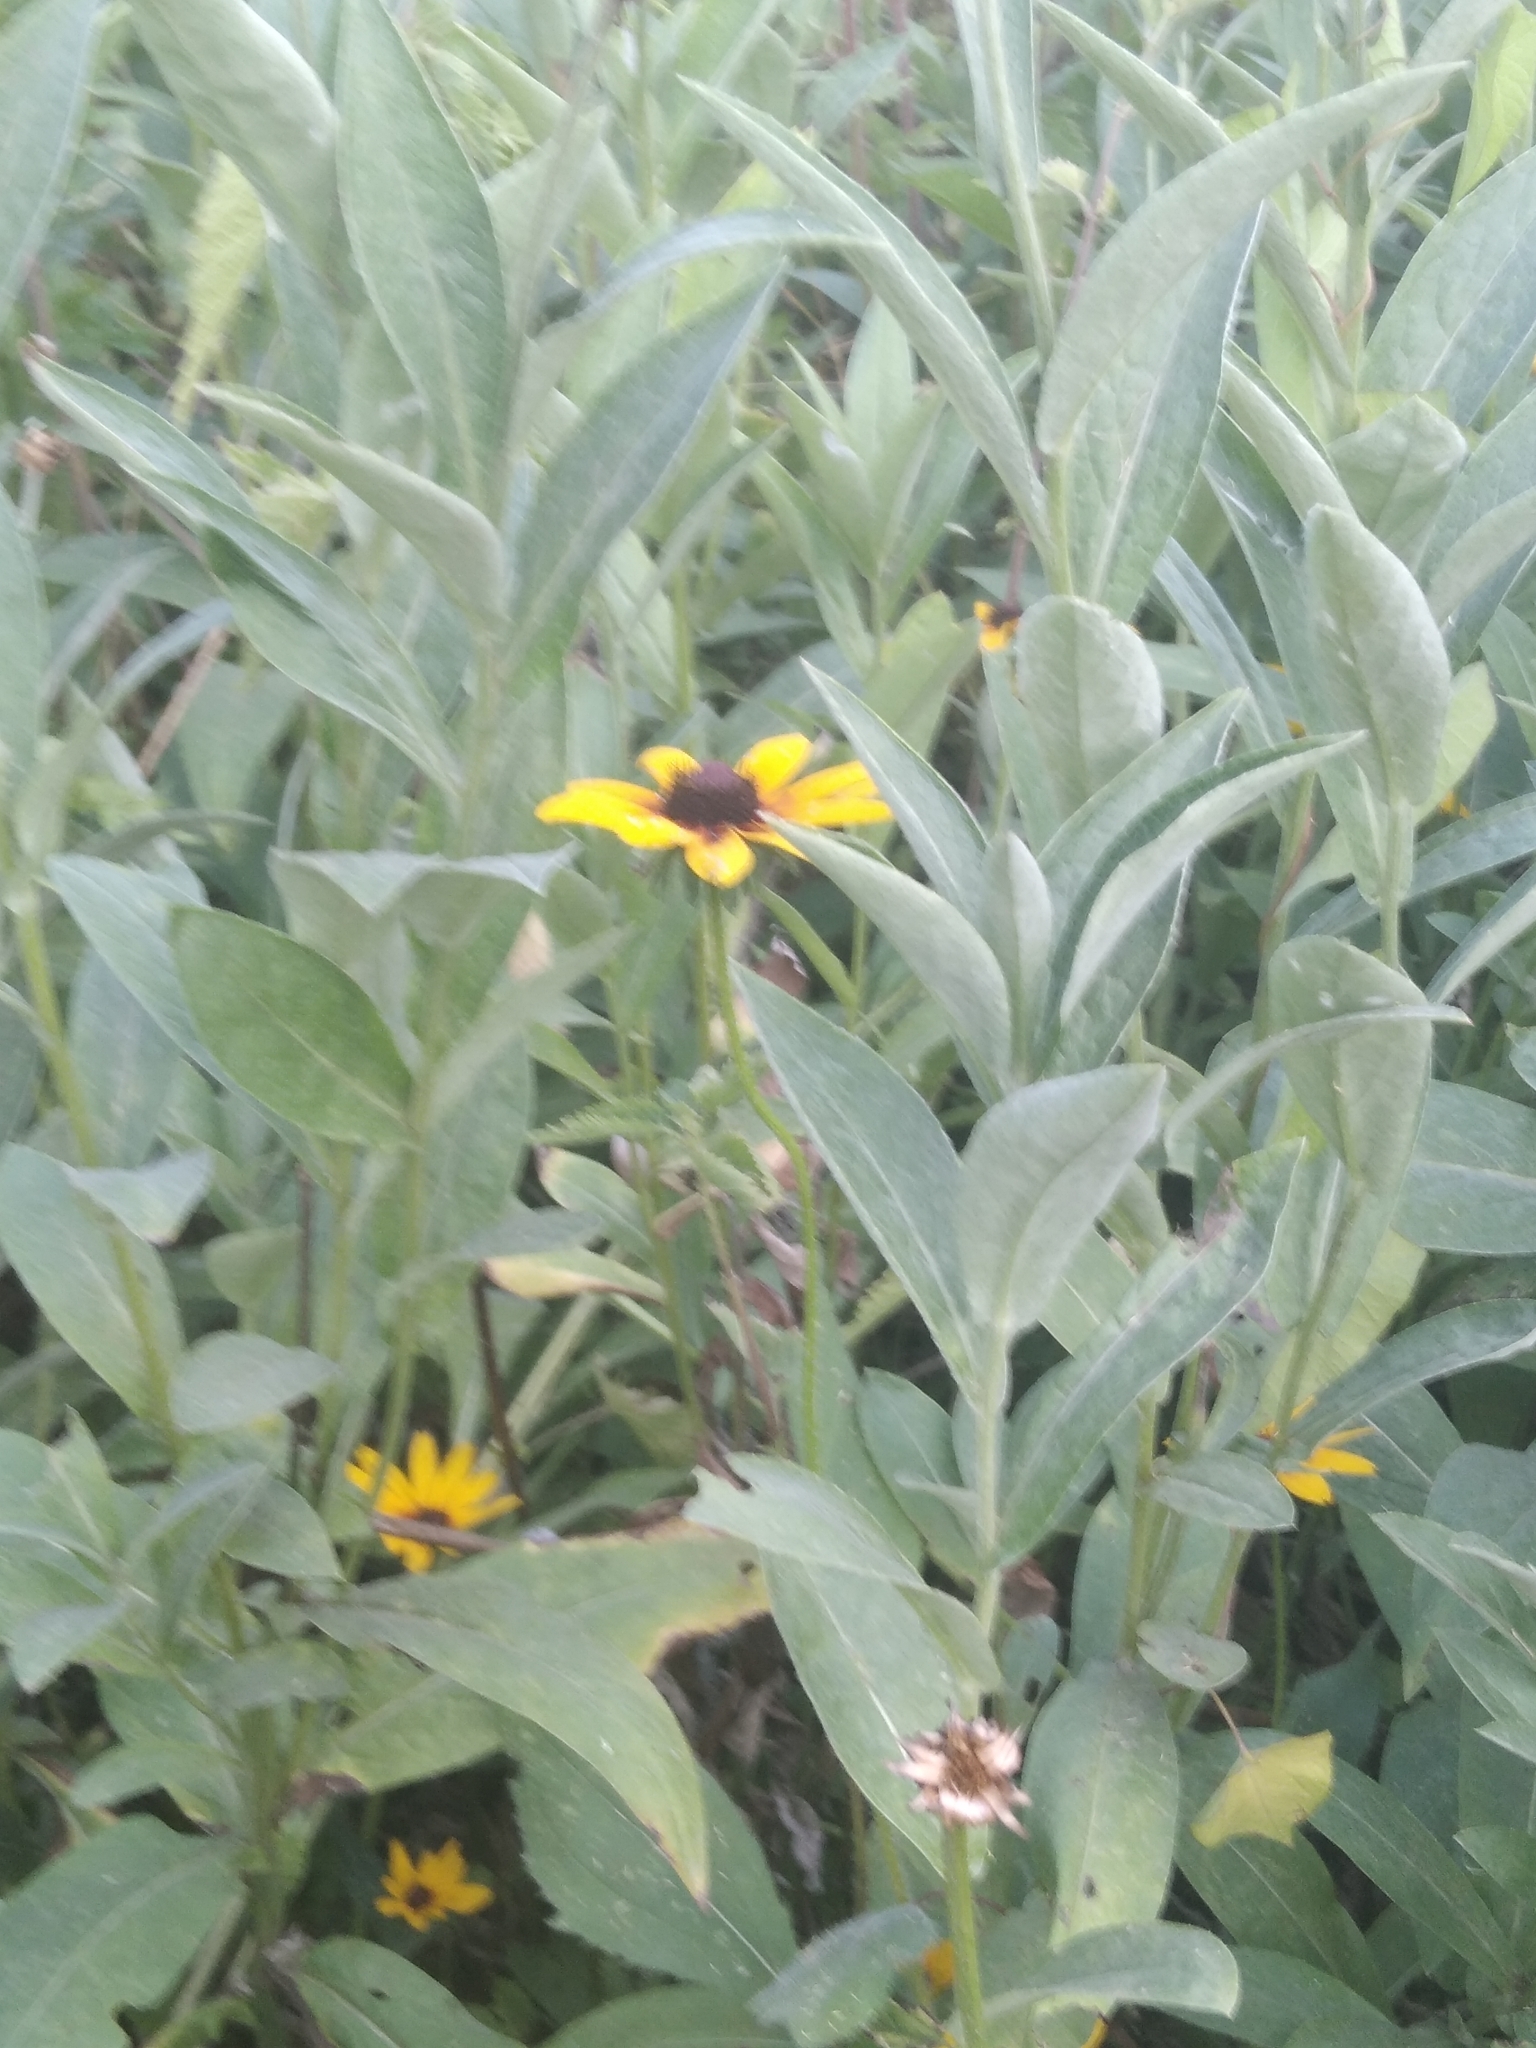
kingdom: Plantae
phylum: Tracheophyta
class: Magnoliopsida
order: Asterales
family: Asteraceae
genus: Rudbeckia
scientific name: Rudbeckia hirta
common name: Black-eyed-susan
